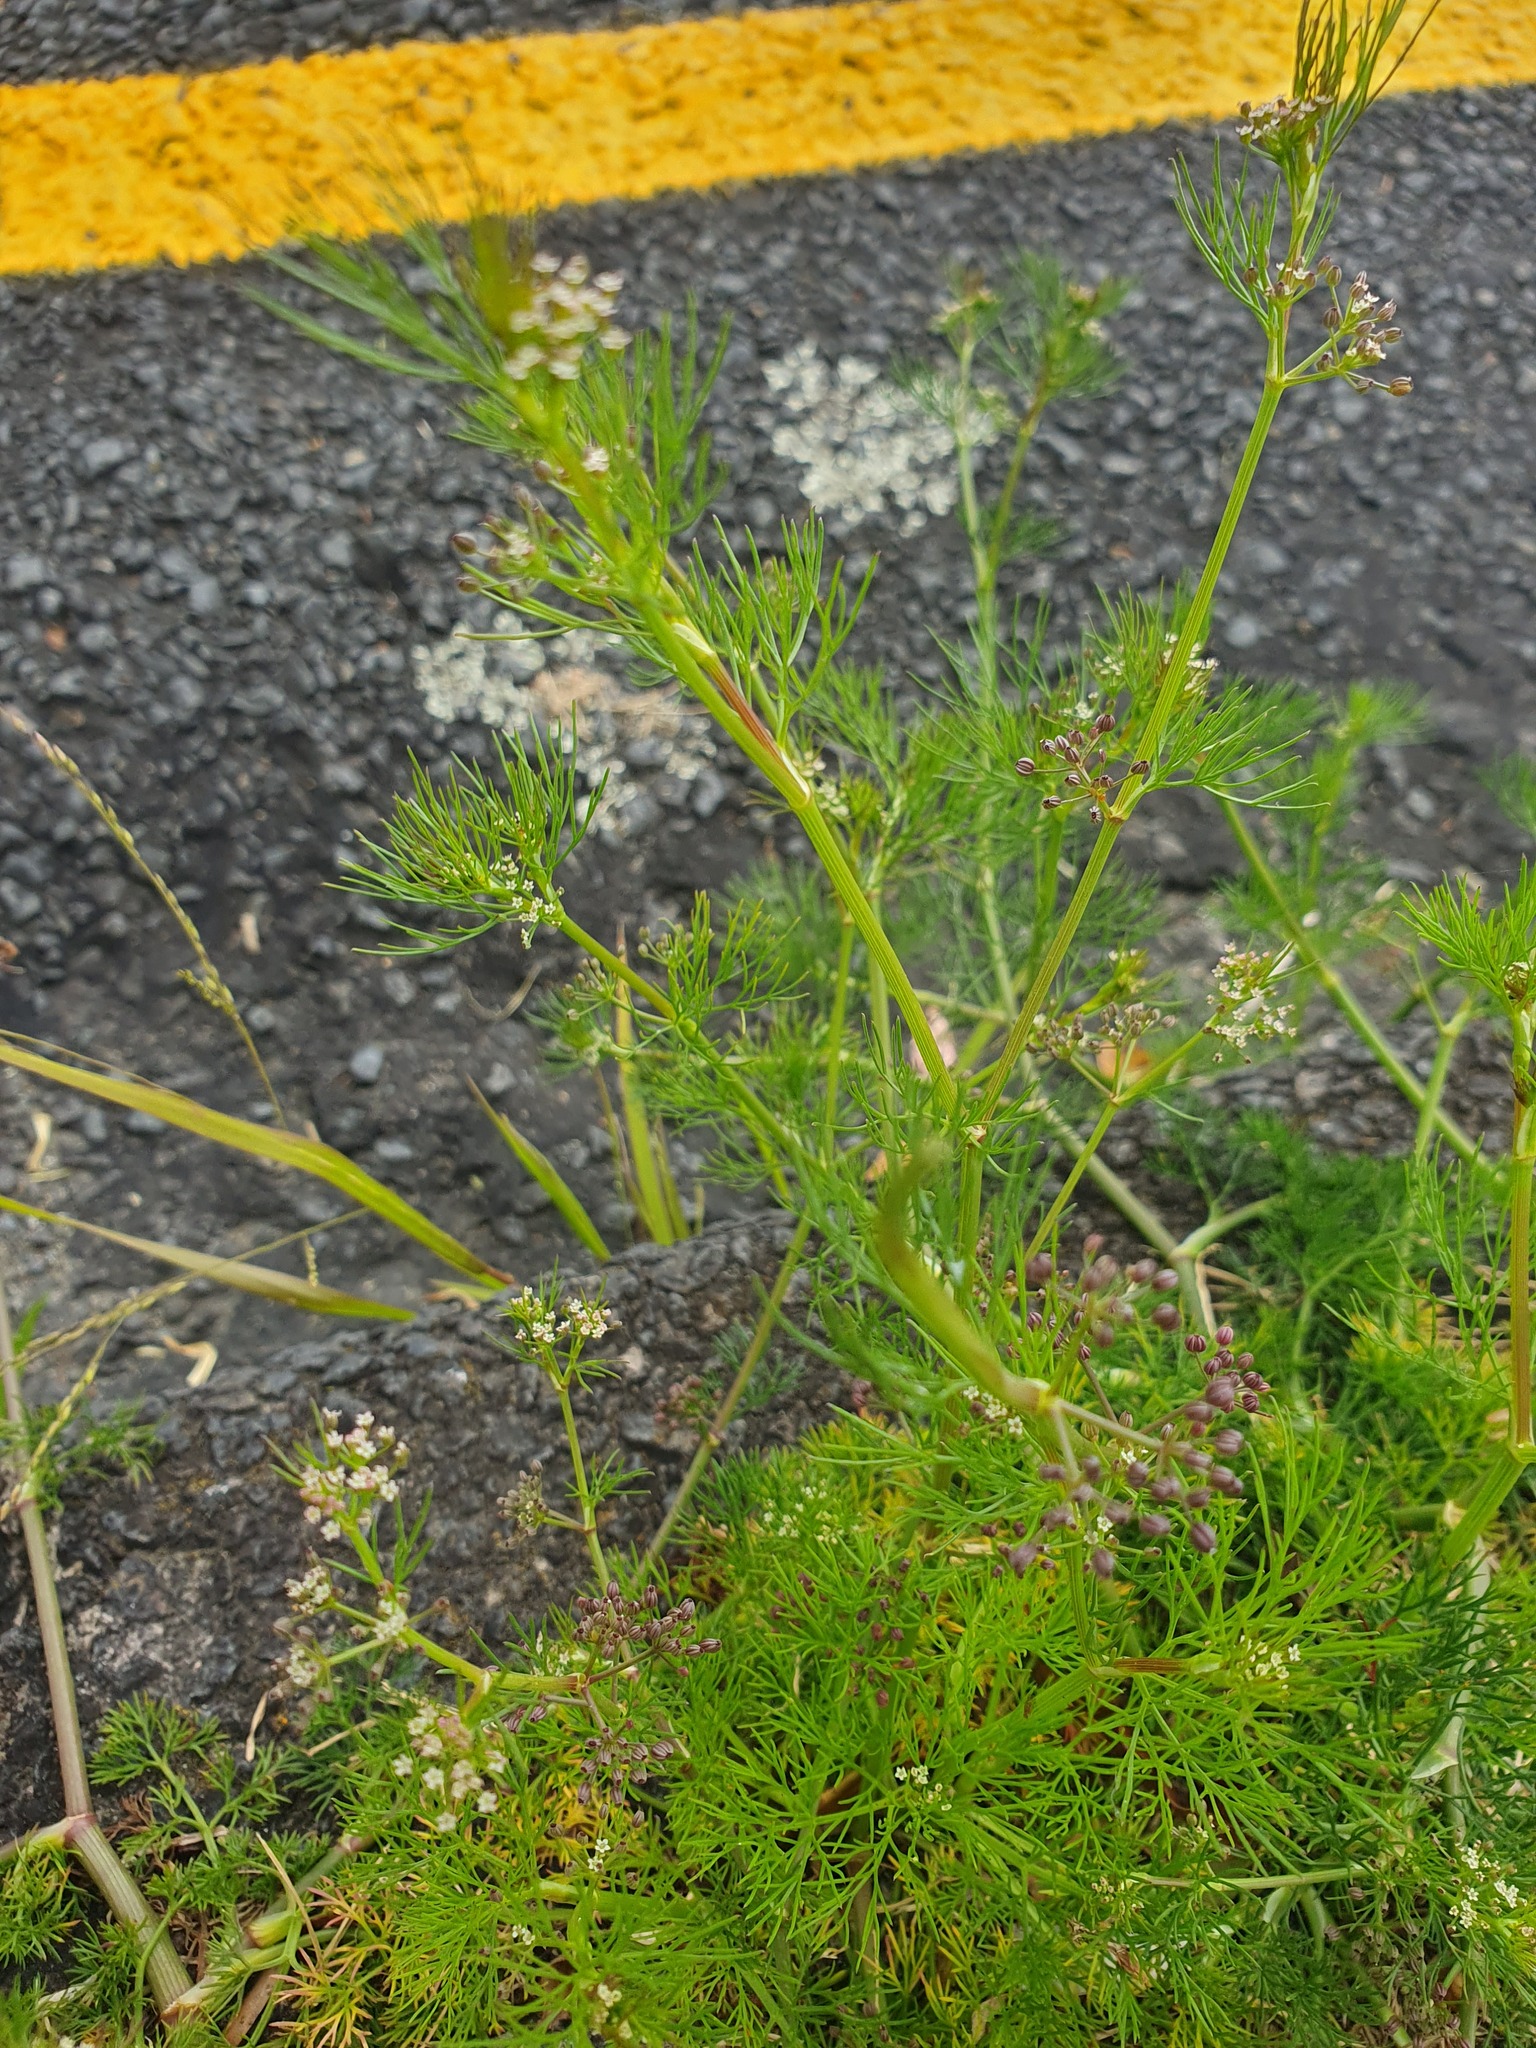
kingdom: Plantae
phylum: Tracheophyta
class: Magnoliopsida
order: Apiales
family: Apiaceae
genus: Cyclospermum
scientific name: Cyclospermum leptophyllum
